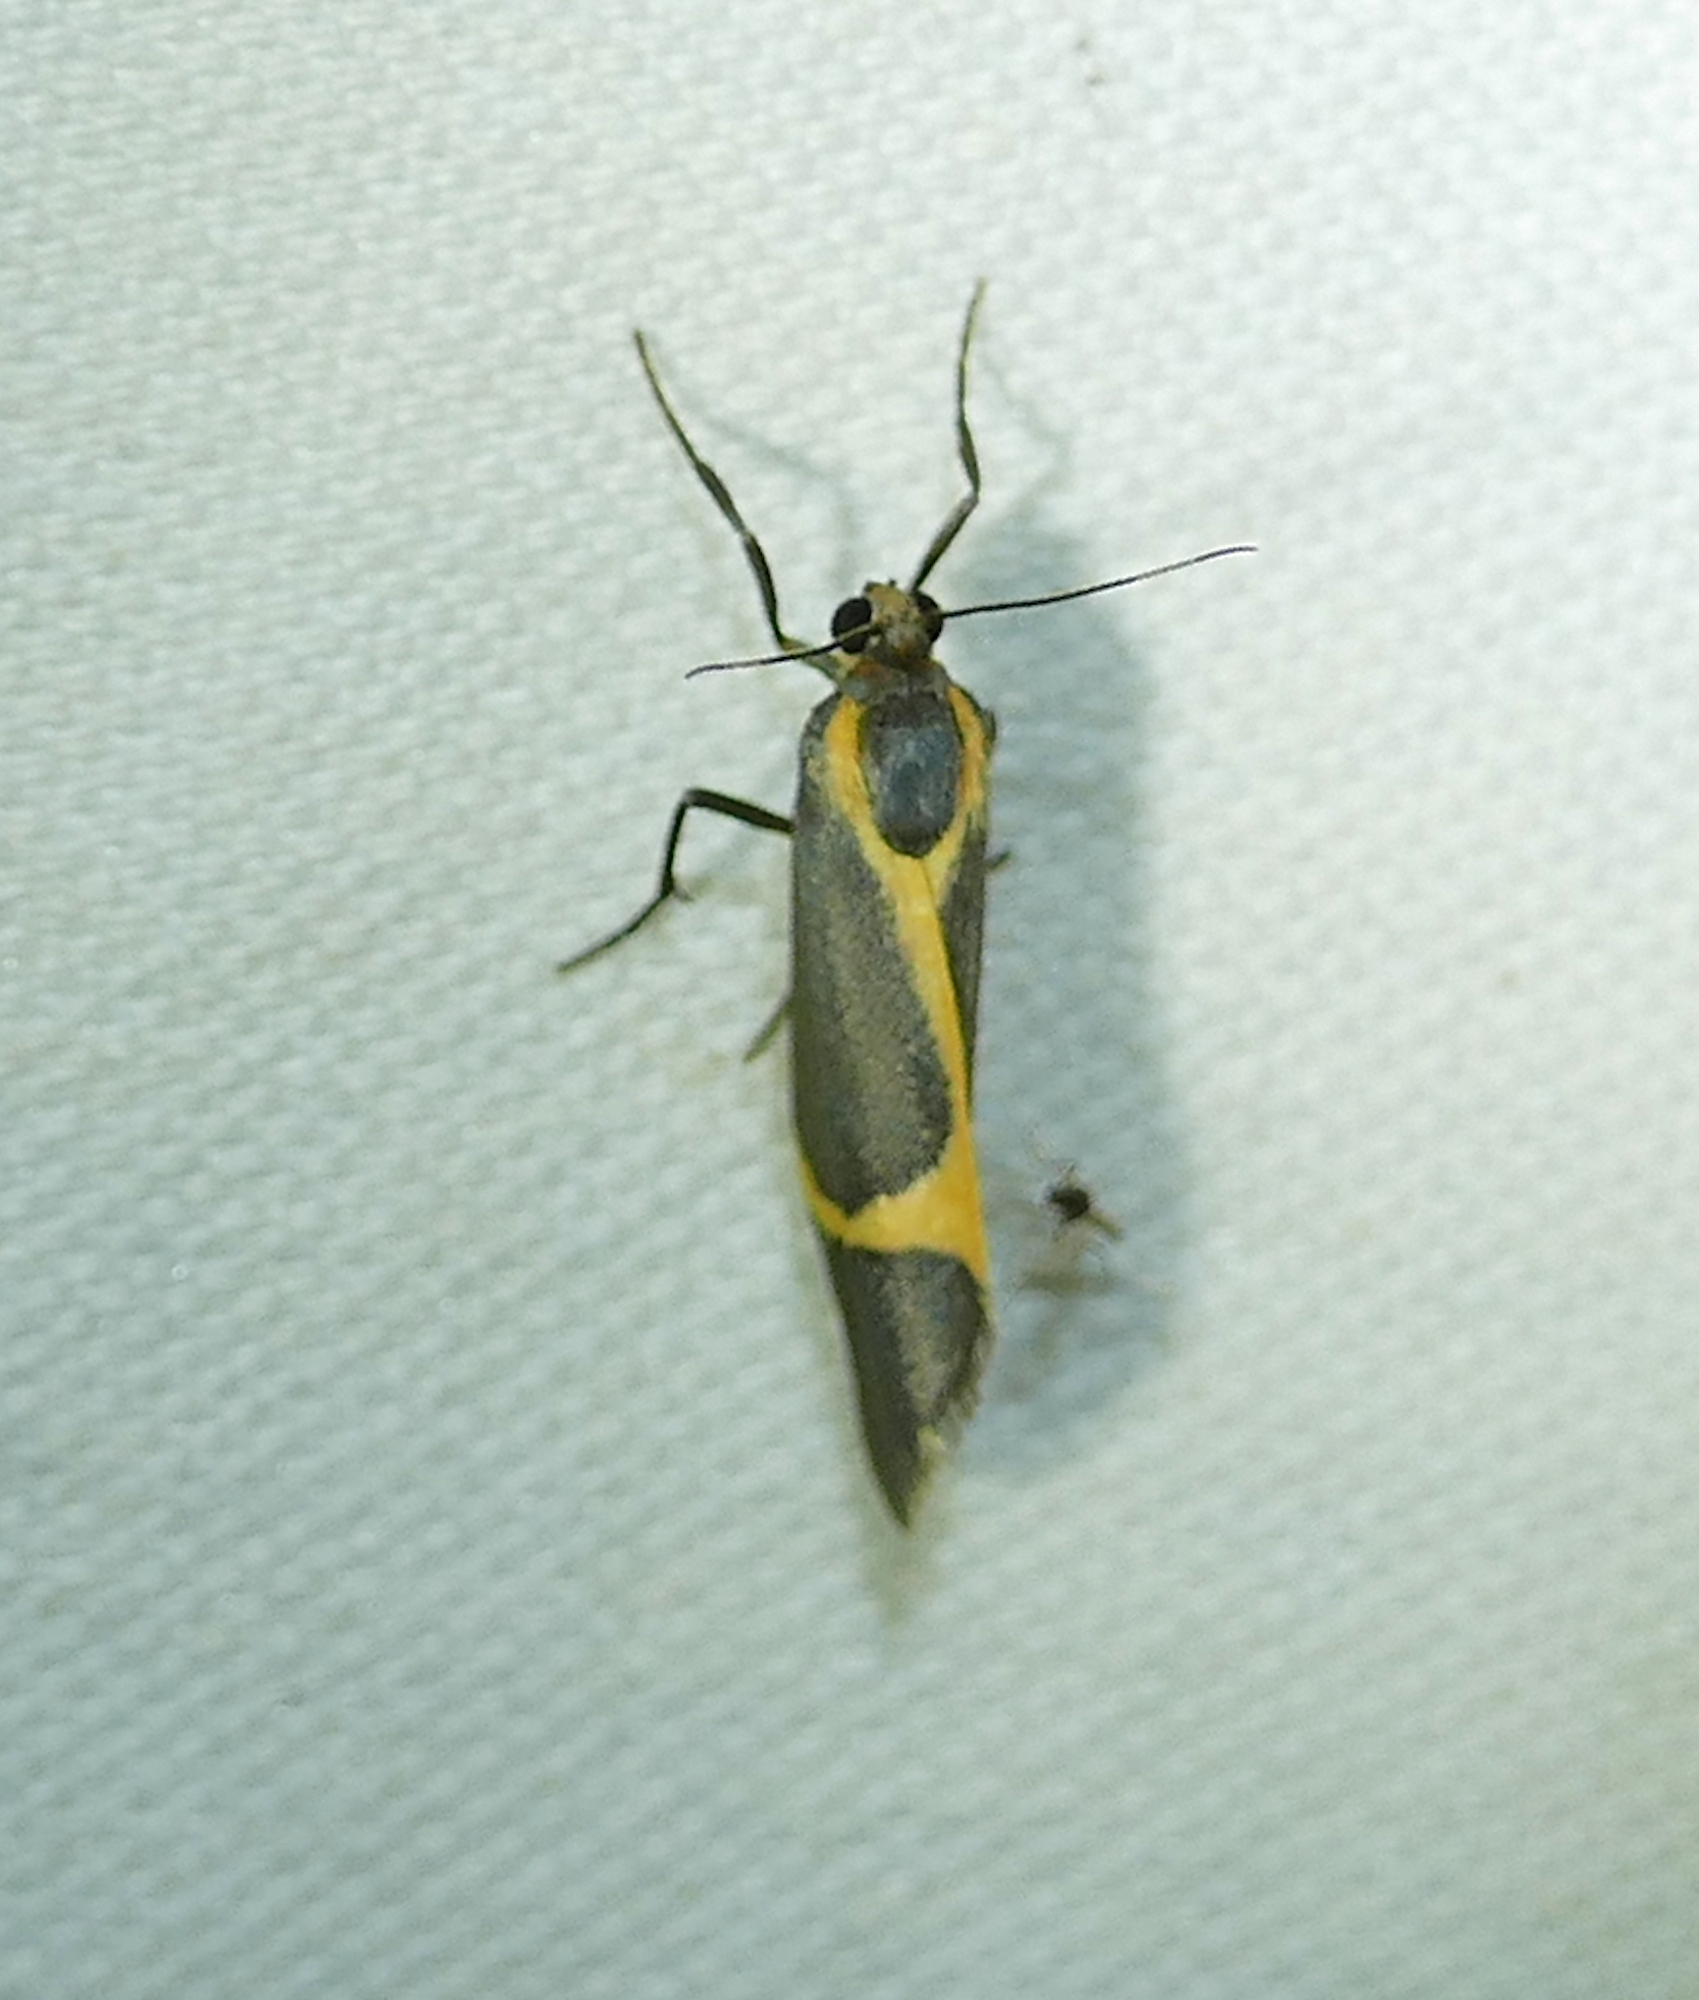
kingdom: Animalia
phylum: Arthropoda
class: Insecta
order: Lepidoptera
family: Erebidae
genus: Cisthene
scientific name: Cisthene barnesii
